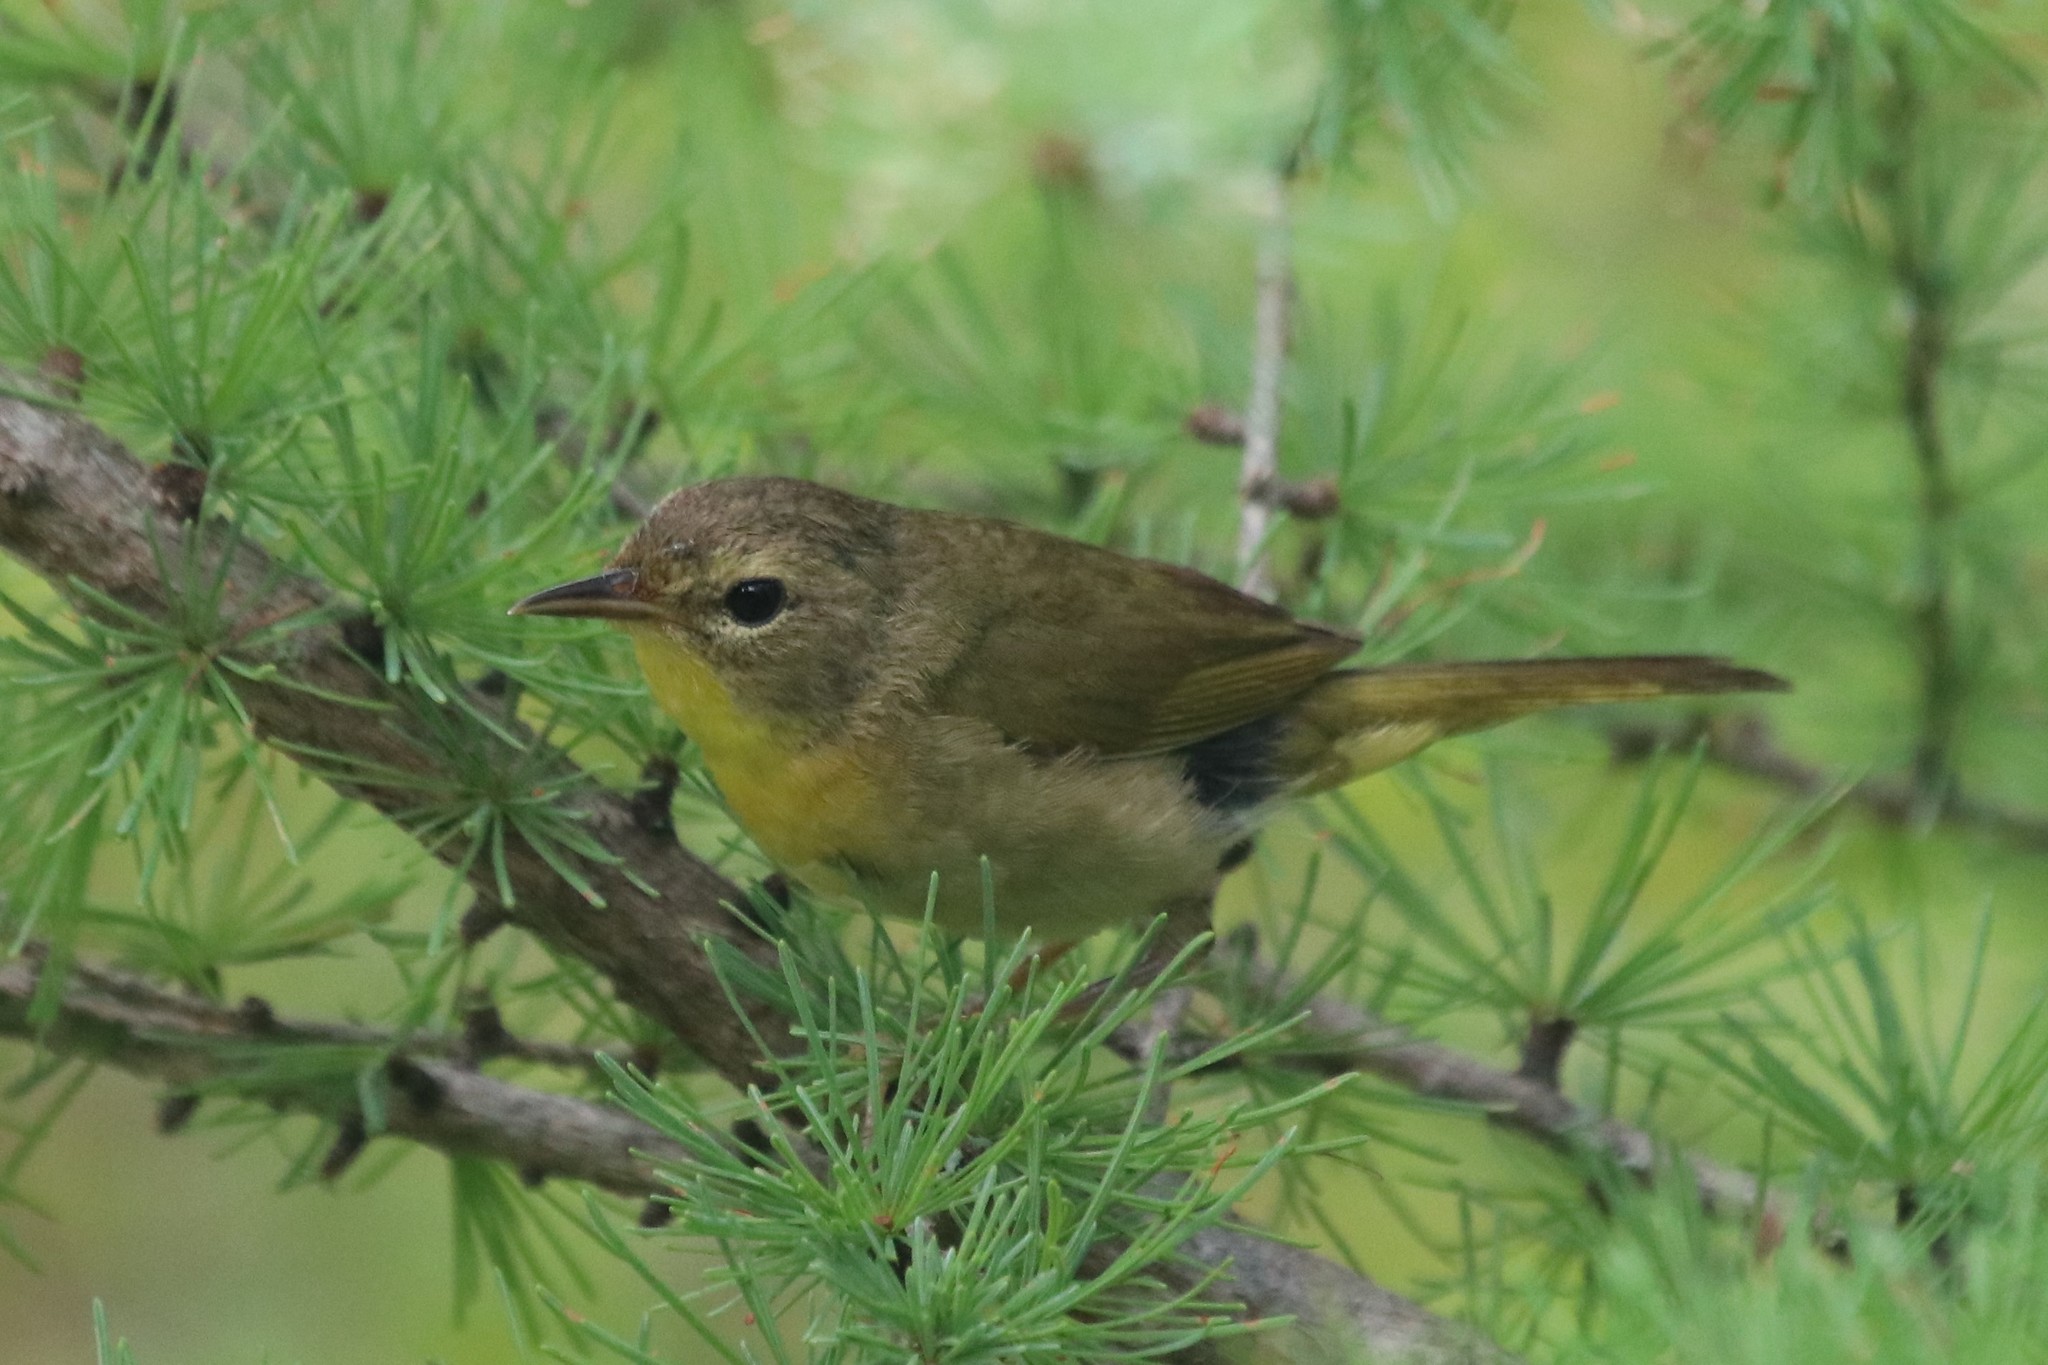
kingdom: Animalia
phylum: Chordata
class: Aves
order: Passeriformes
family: Parulidae
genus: Geothlypis
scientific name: Geothlypis trichas
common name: Common yellowthroat
